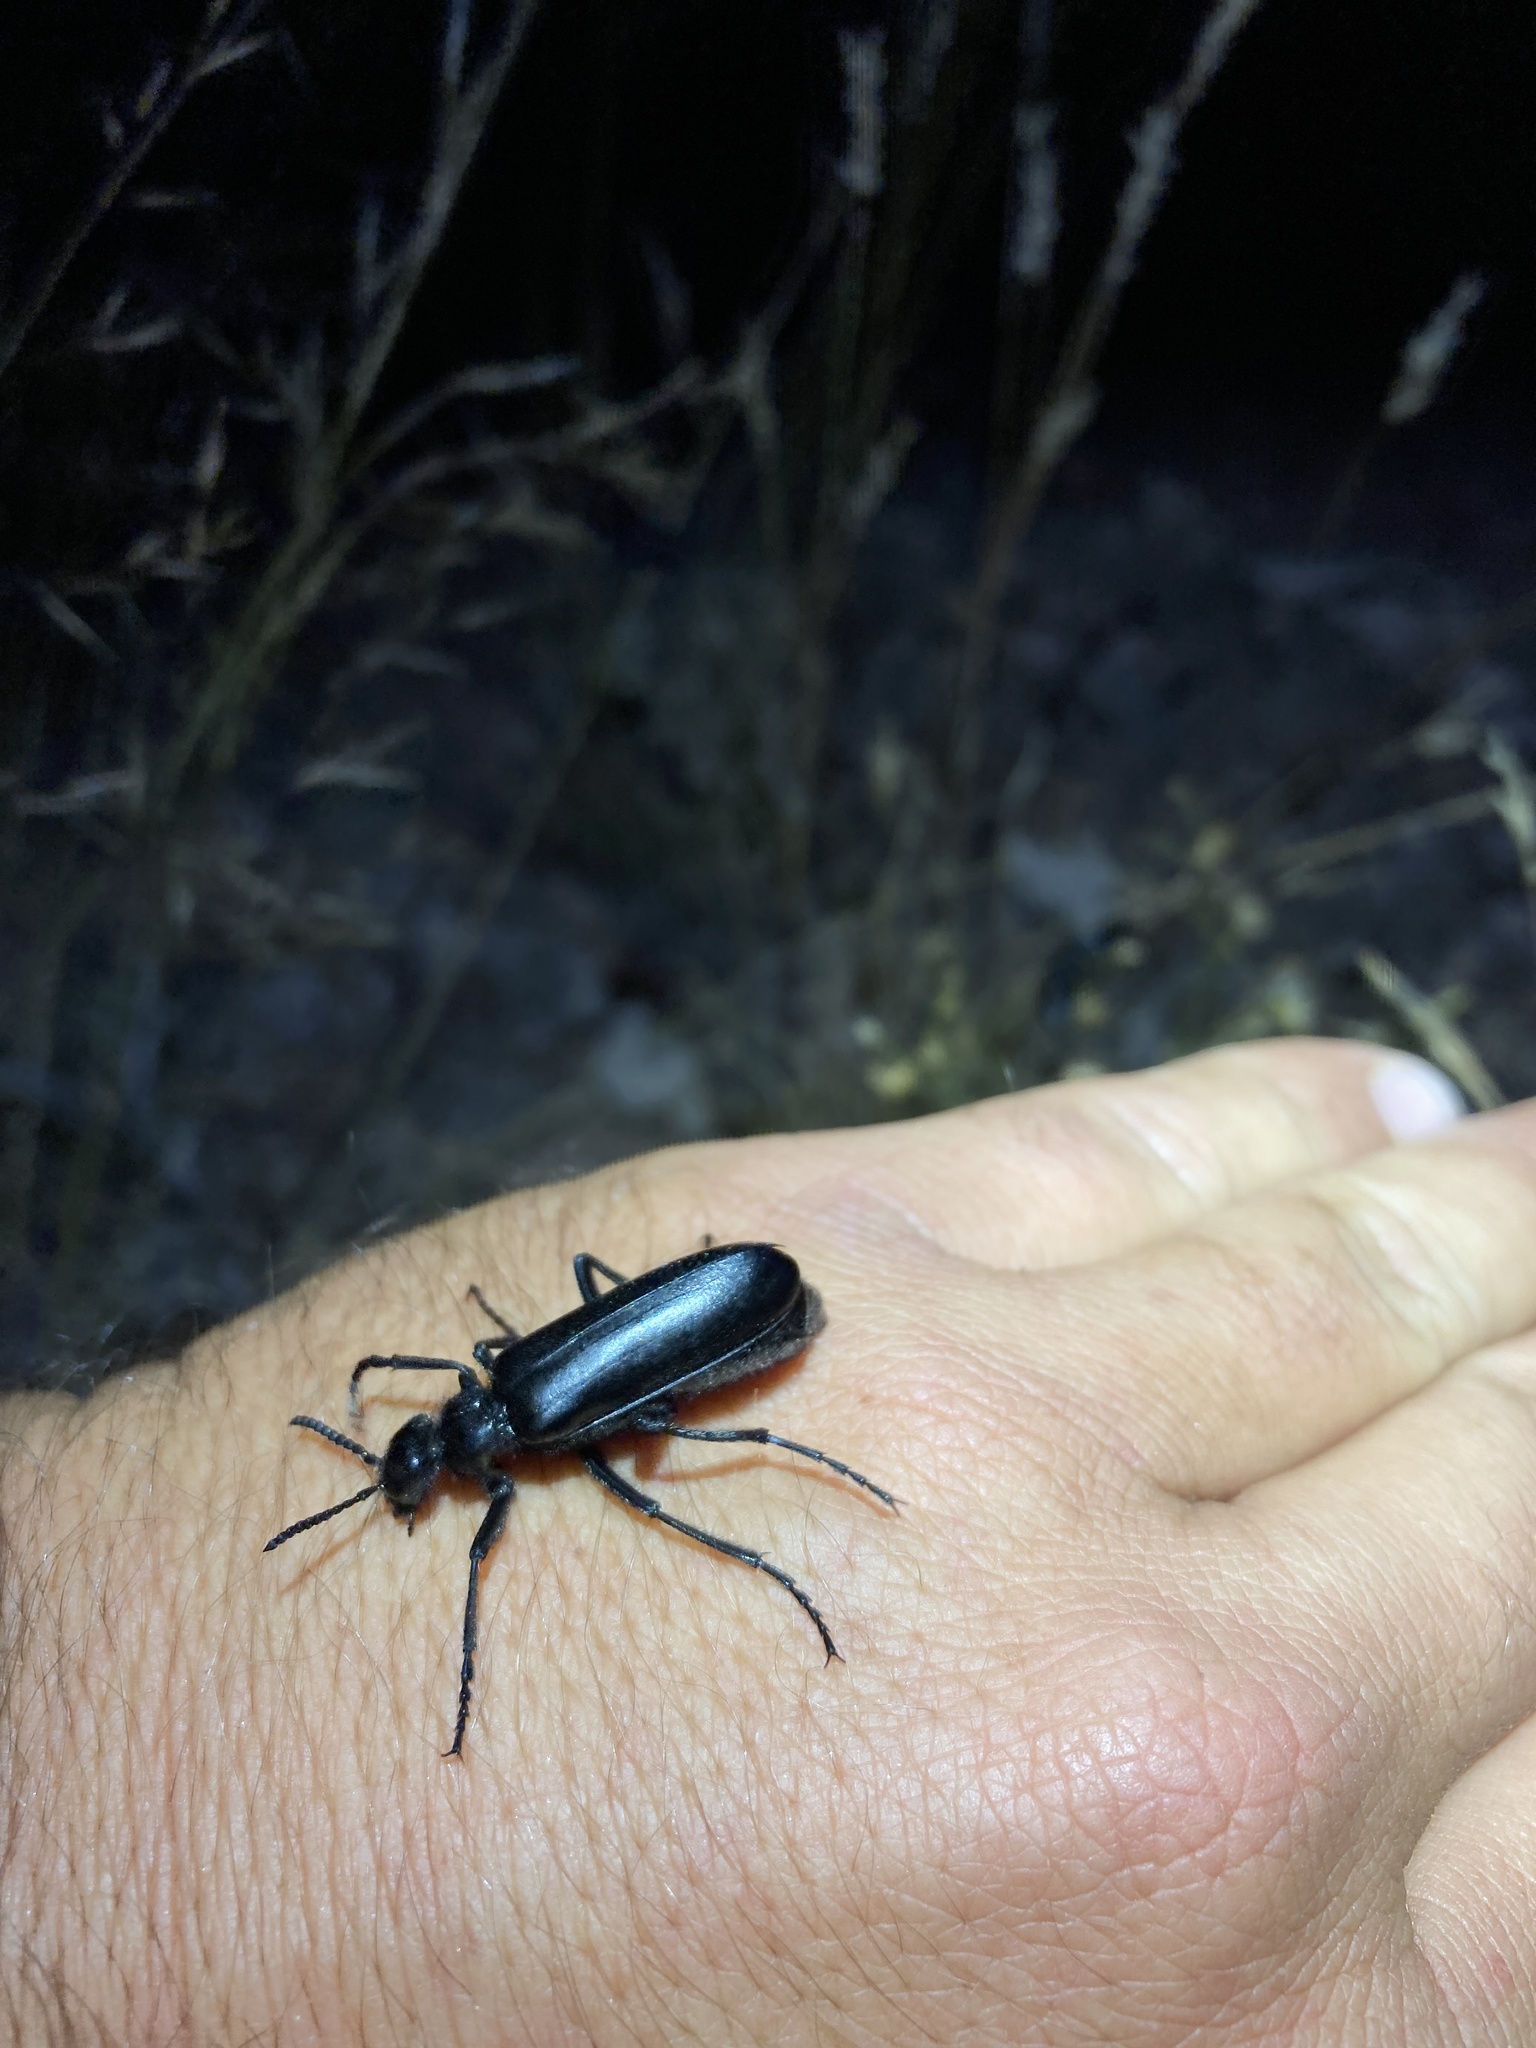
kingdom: Animalia
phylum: Arthropoda
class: Insecta
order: Coleoptera
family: Meloidae
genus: Linsleya
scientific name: Linsleya suavissima
